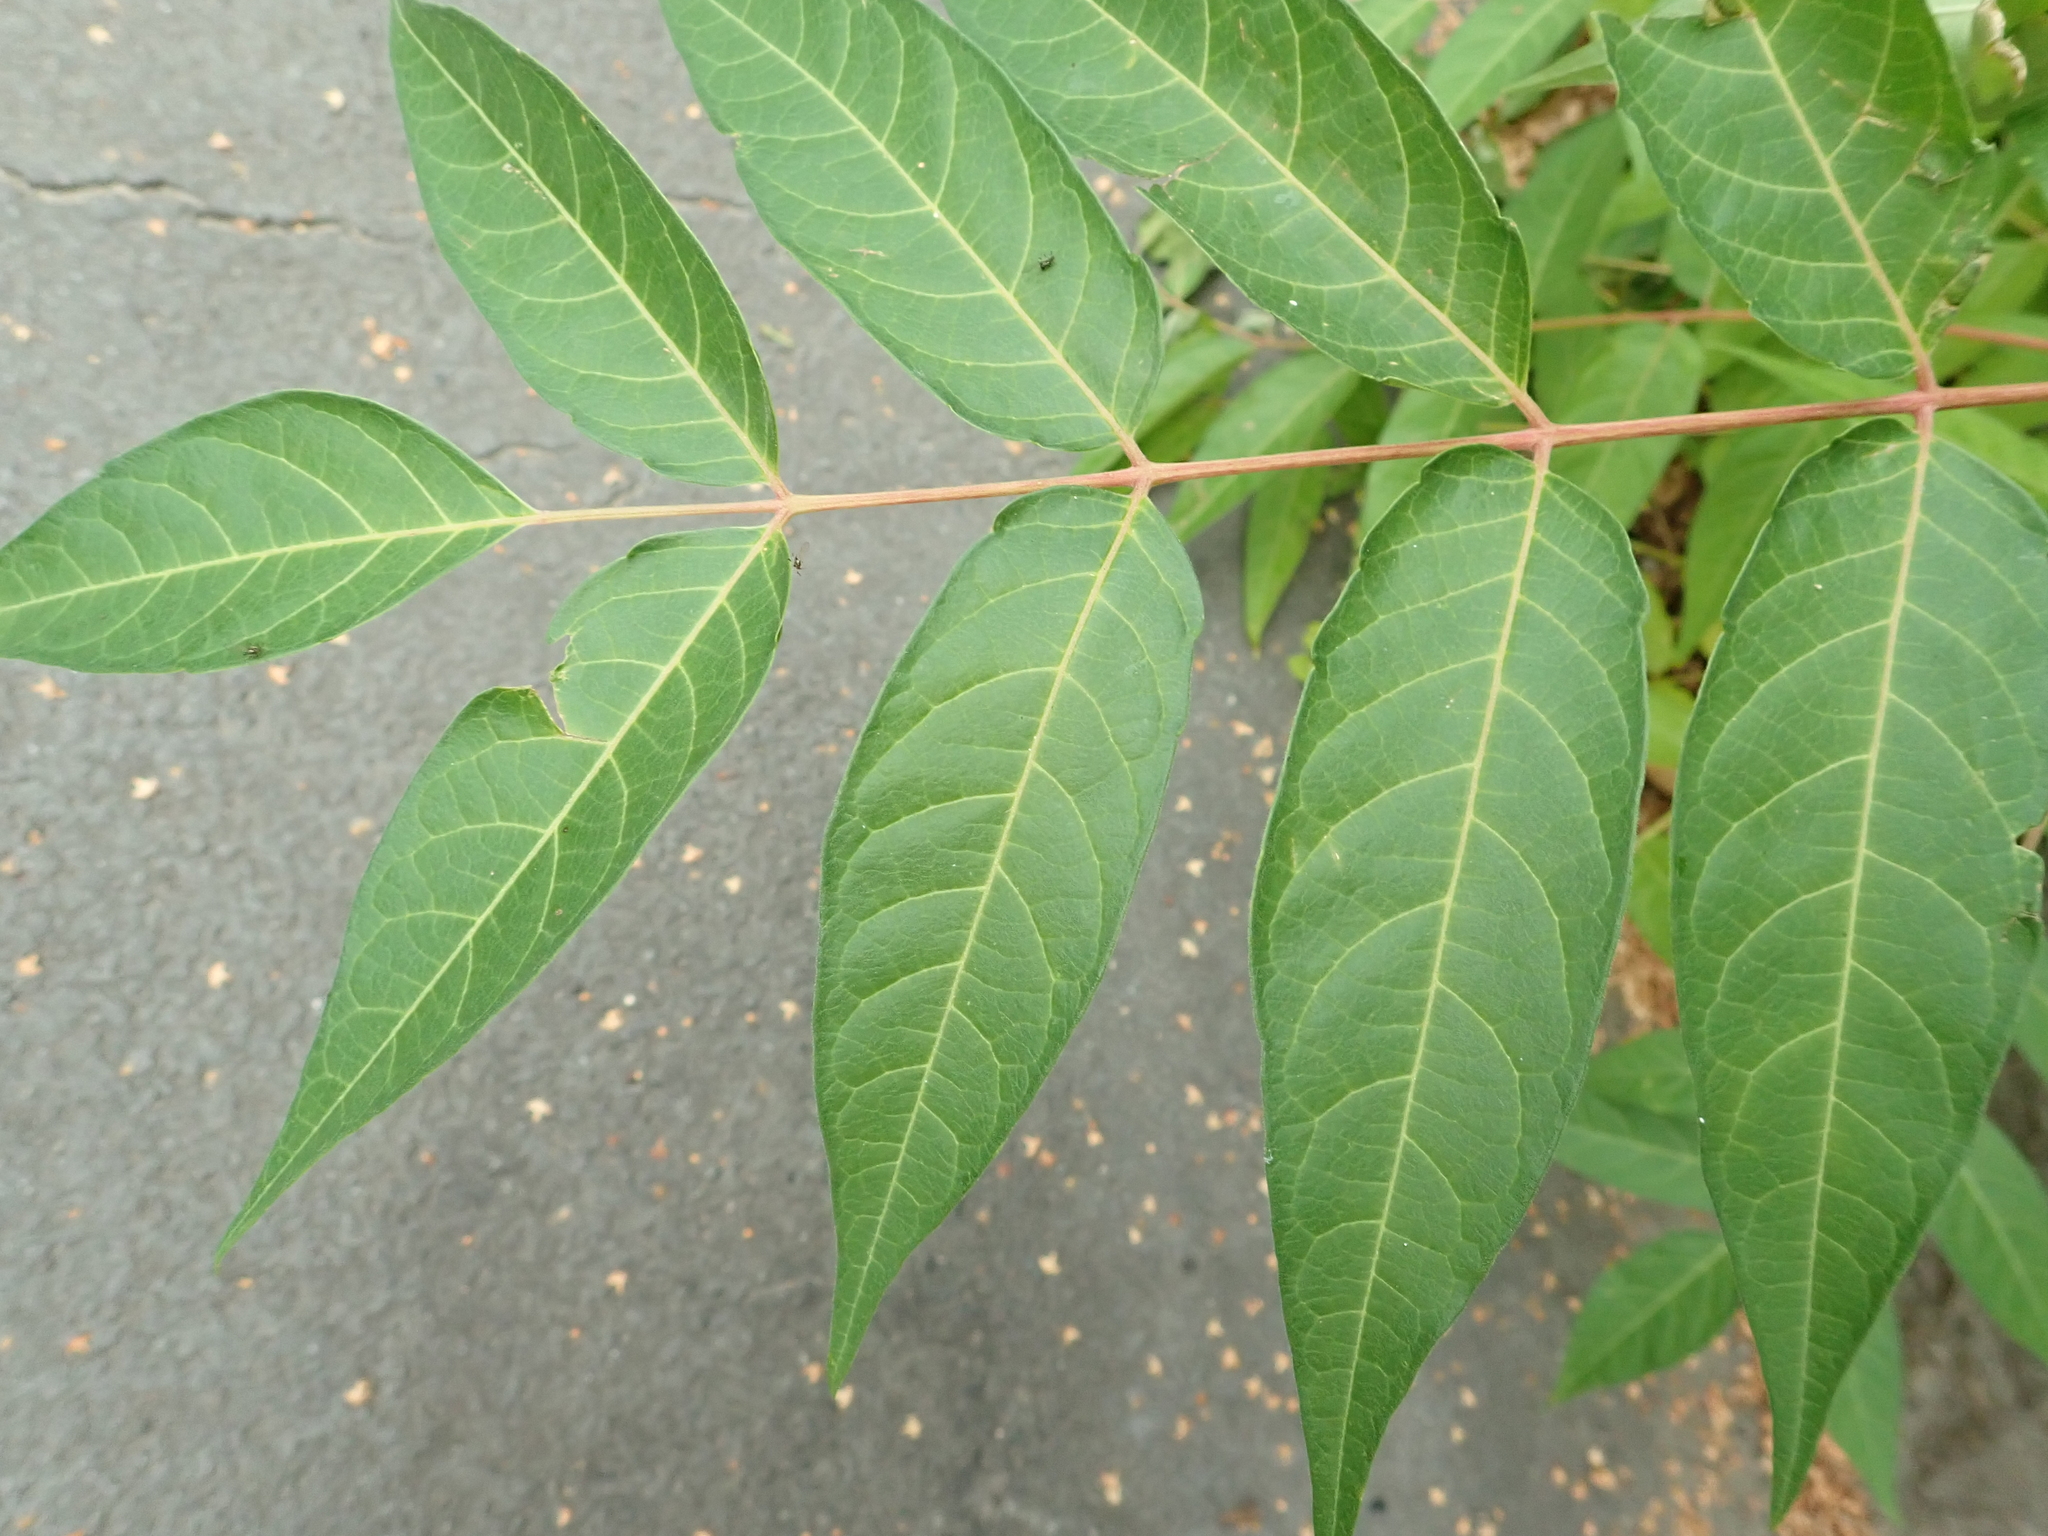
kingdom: Plantae
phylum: Tracheophyta
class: Magnoliopsida
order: Sapindales
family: Simaroubaceae
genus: Ailanthus
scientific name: Ailanthus altissima
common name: Tree-of-heaven
